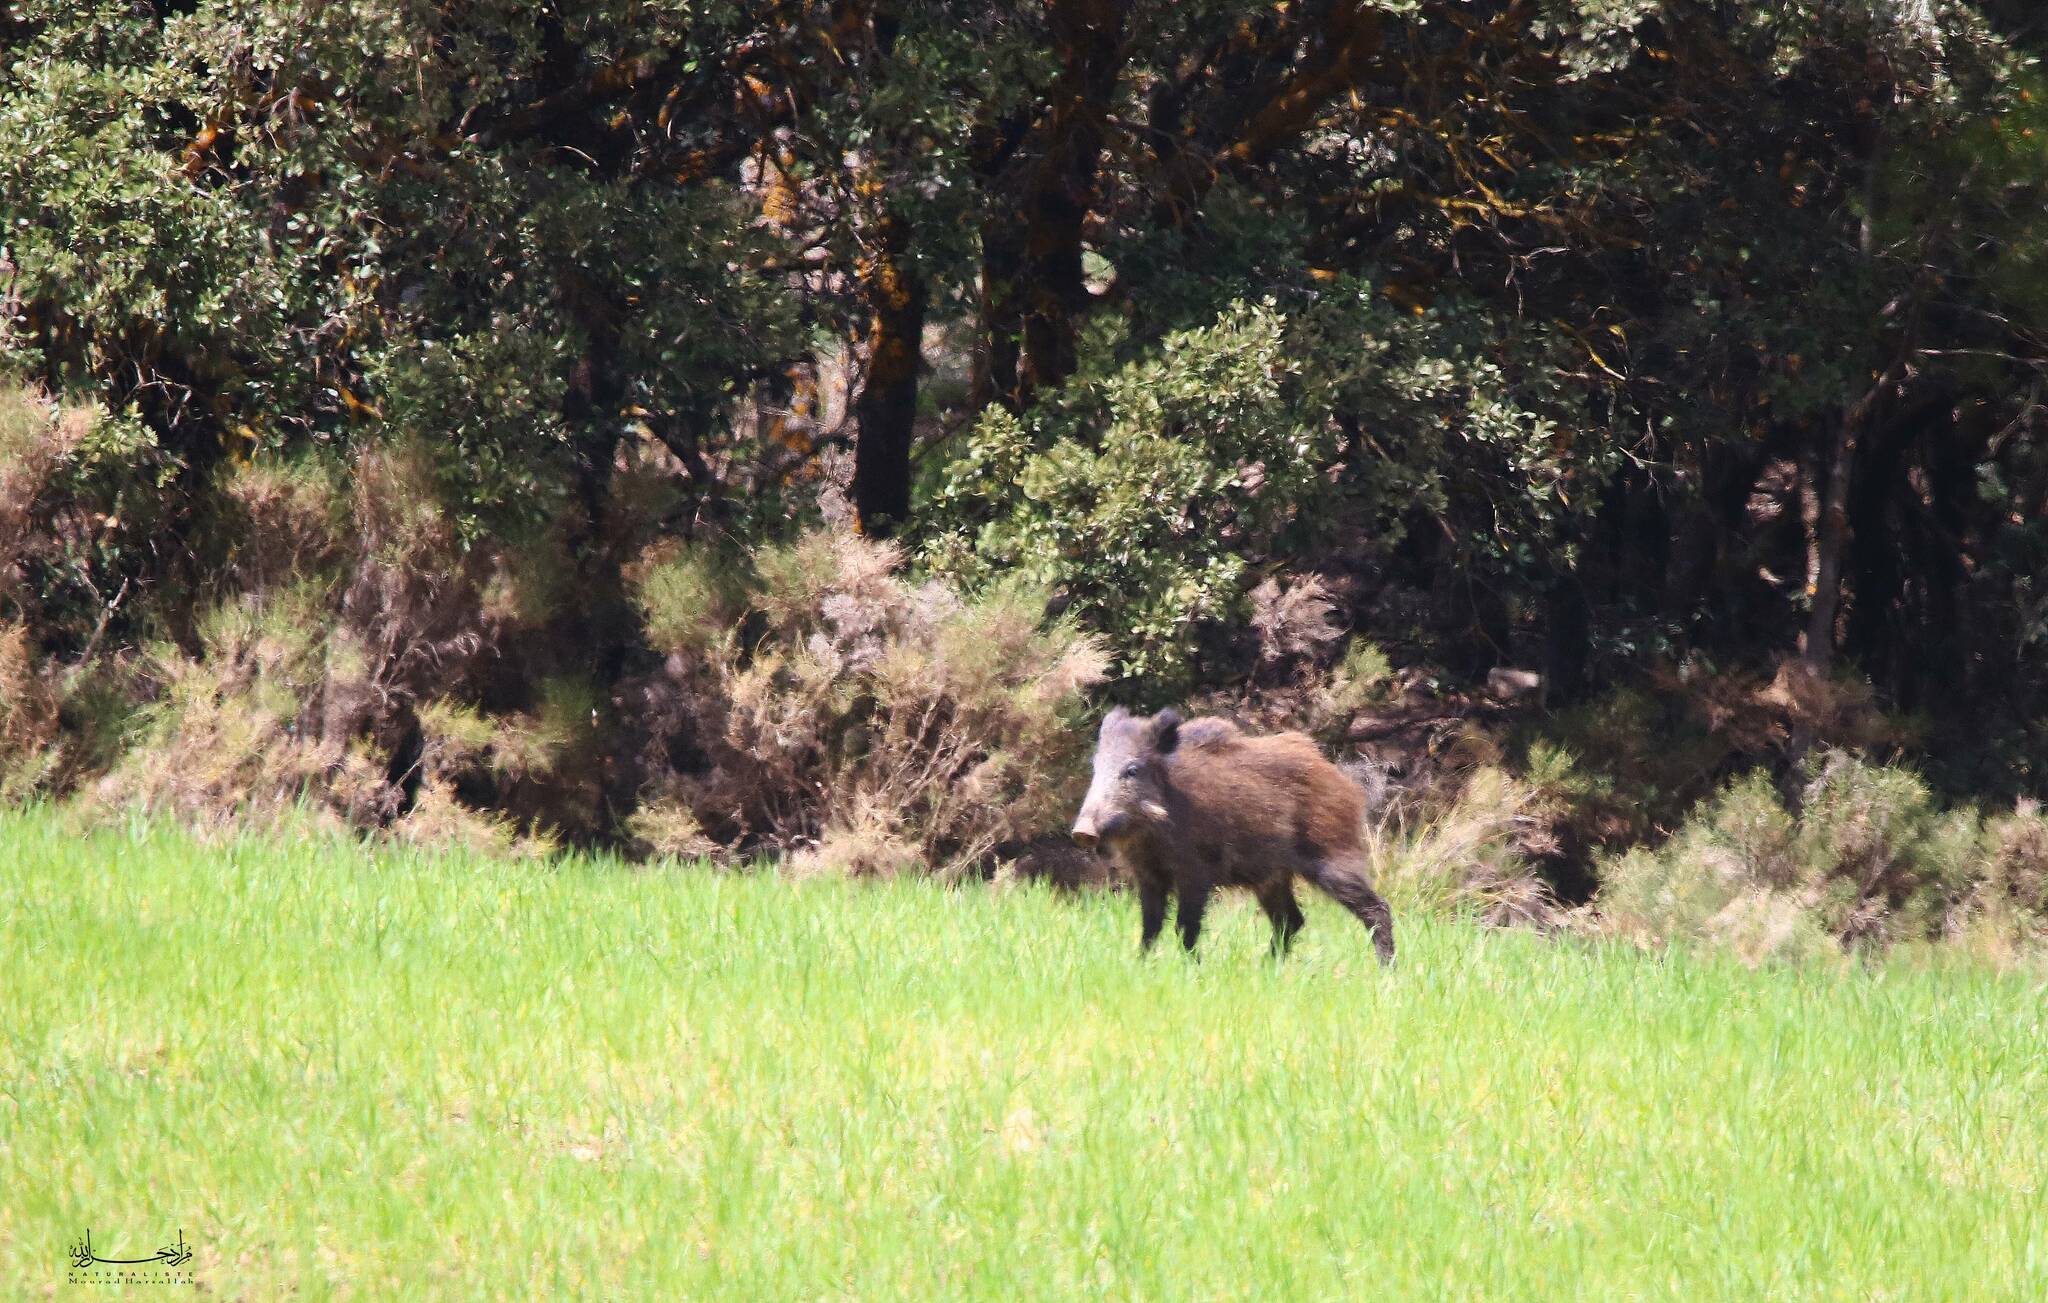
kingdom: Animalia
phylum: Chordata
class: Mammalia
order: Artiodactyla
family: Suidae
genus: Sus
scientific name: Sus scrofa
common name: Wild boar
